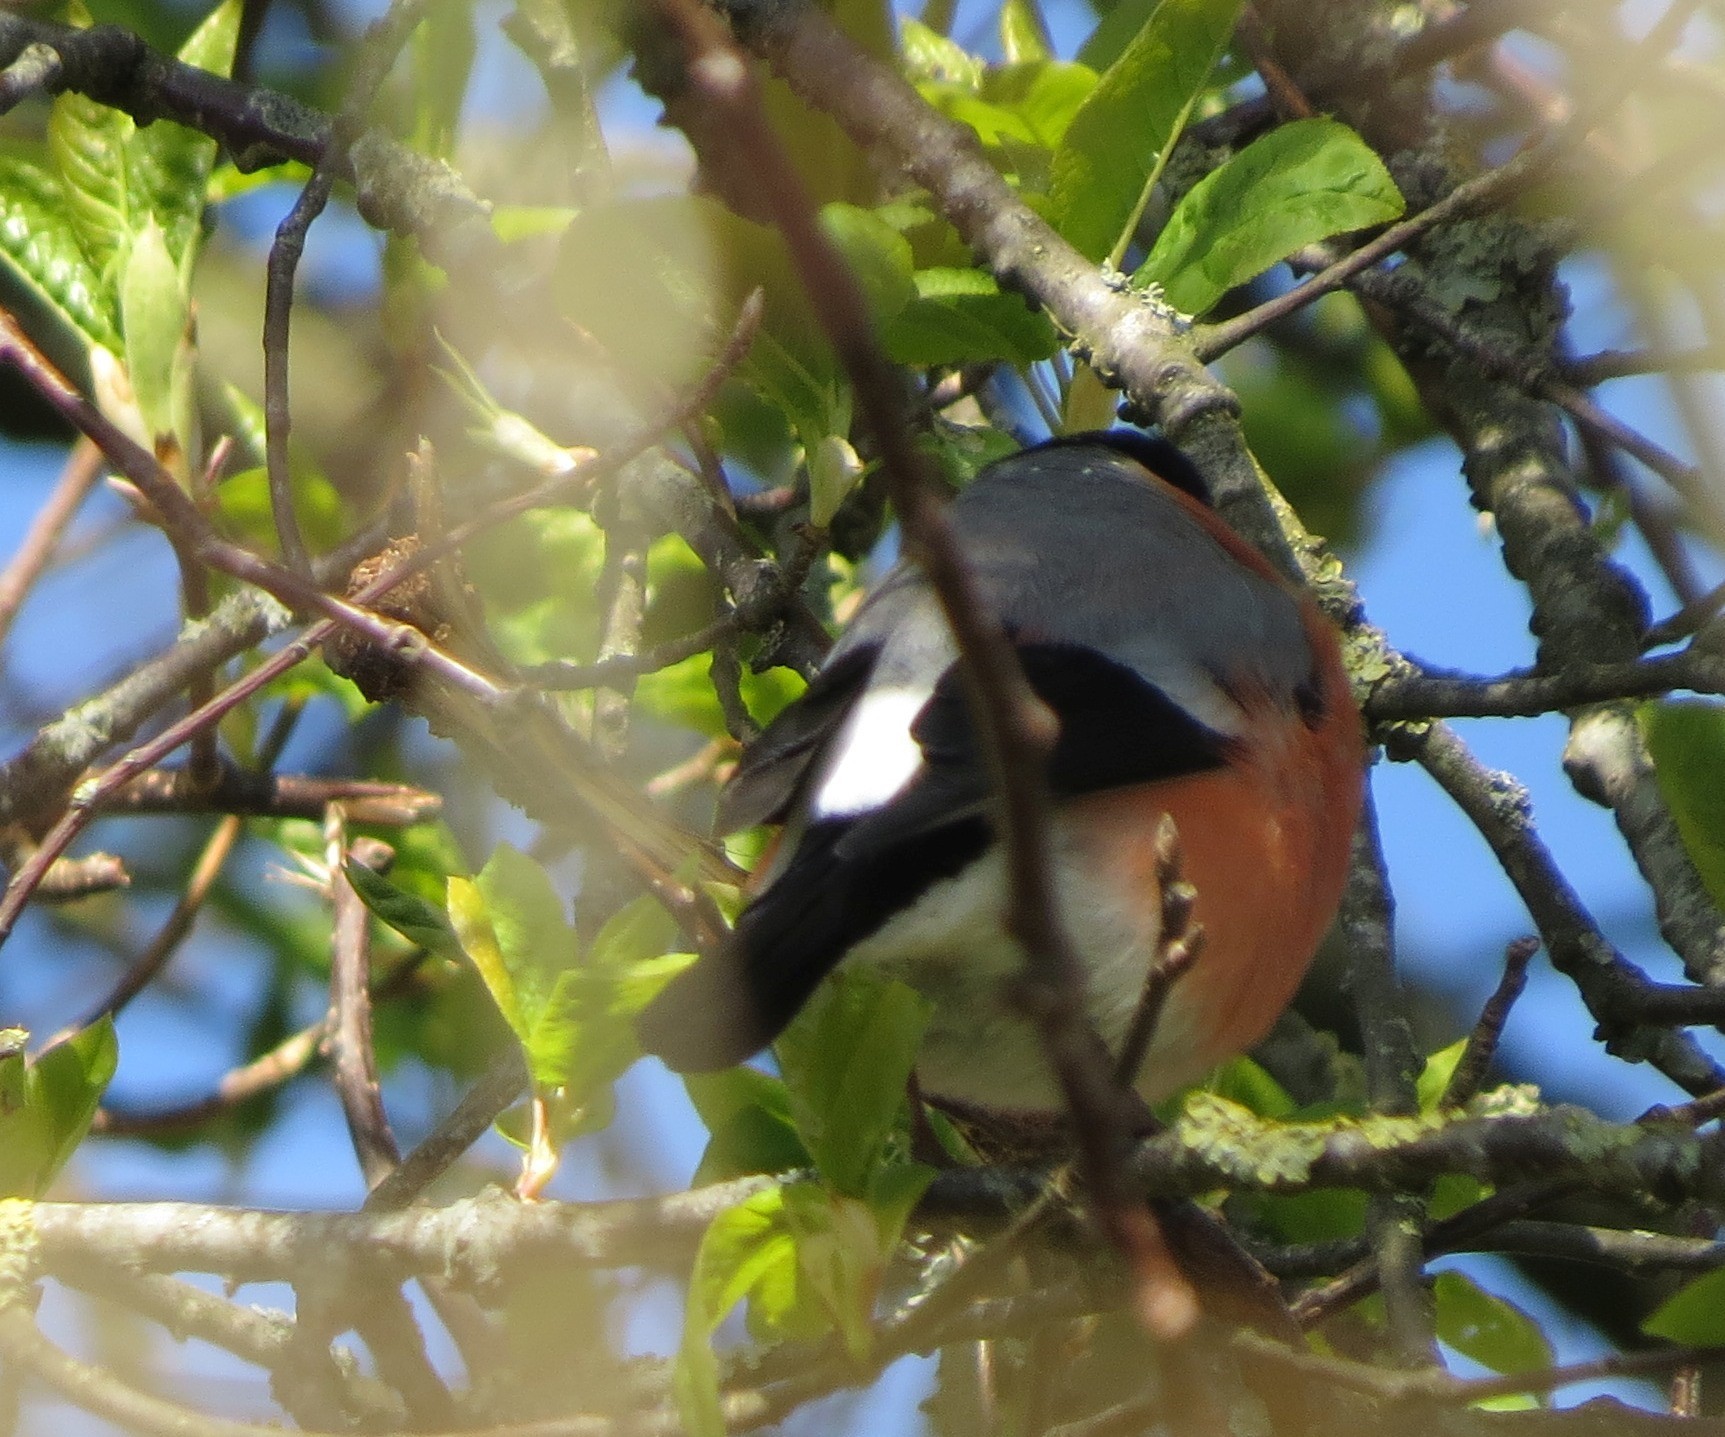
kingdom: Animalia
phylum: Chordata
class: Aves
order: Passeriformes
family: Fringillidae
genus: Pyrrhula
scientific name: Pyrrhula pyrrhula
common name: Eurasian bullfinch
